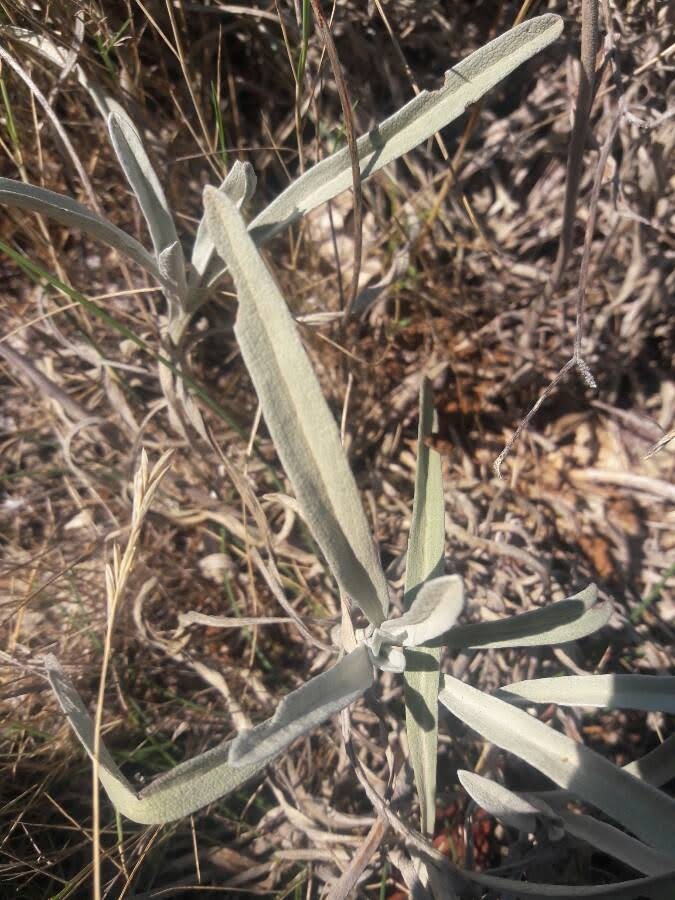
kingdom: Plantae
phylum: Tracheophyta
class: Magnoliopsida
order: Lamiales
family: Lamiaceae
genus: Phlomis
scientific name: Phlomis lychnitis
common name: Lampwickplant
